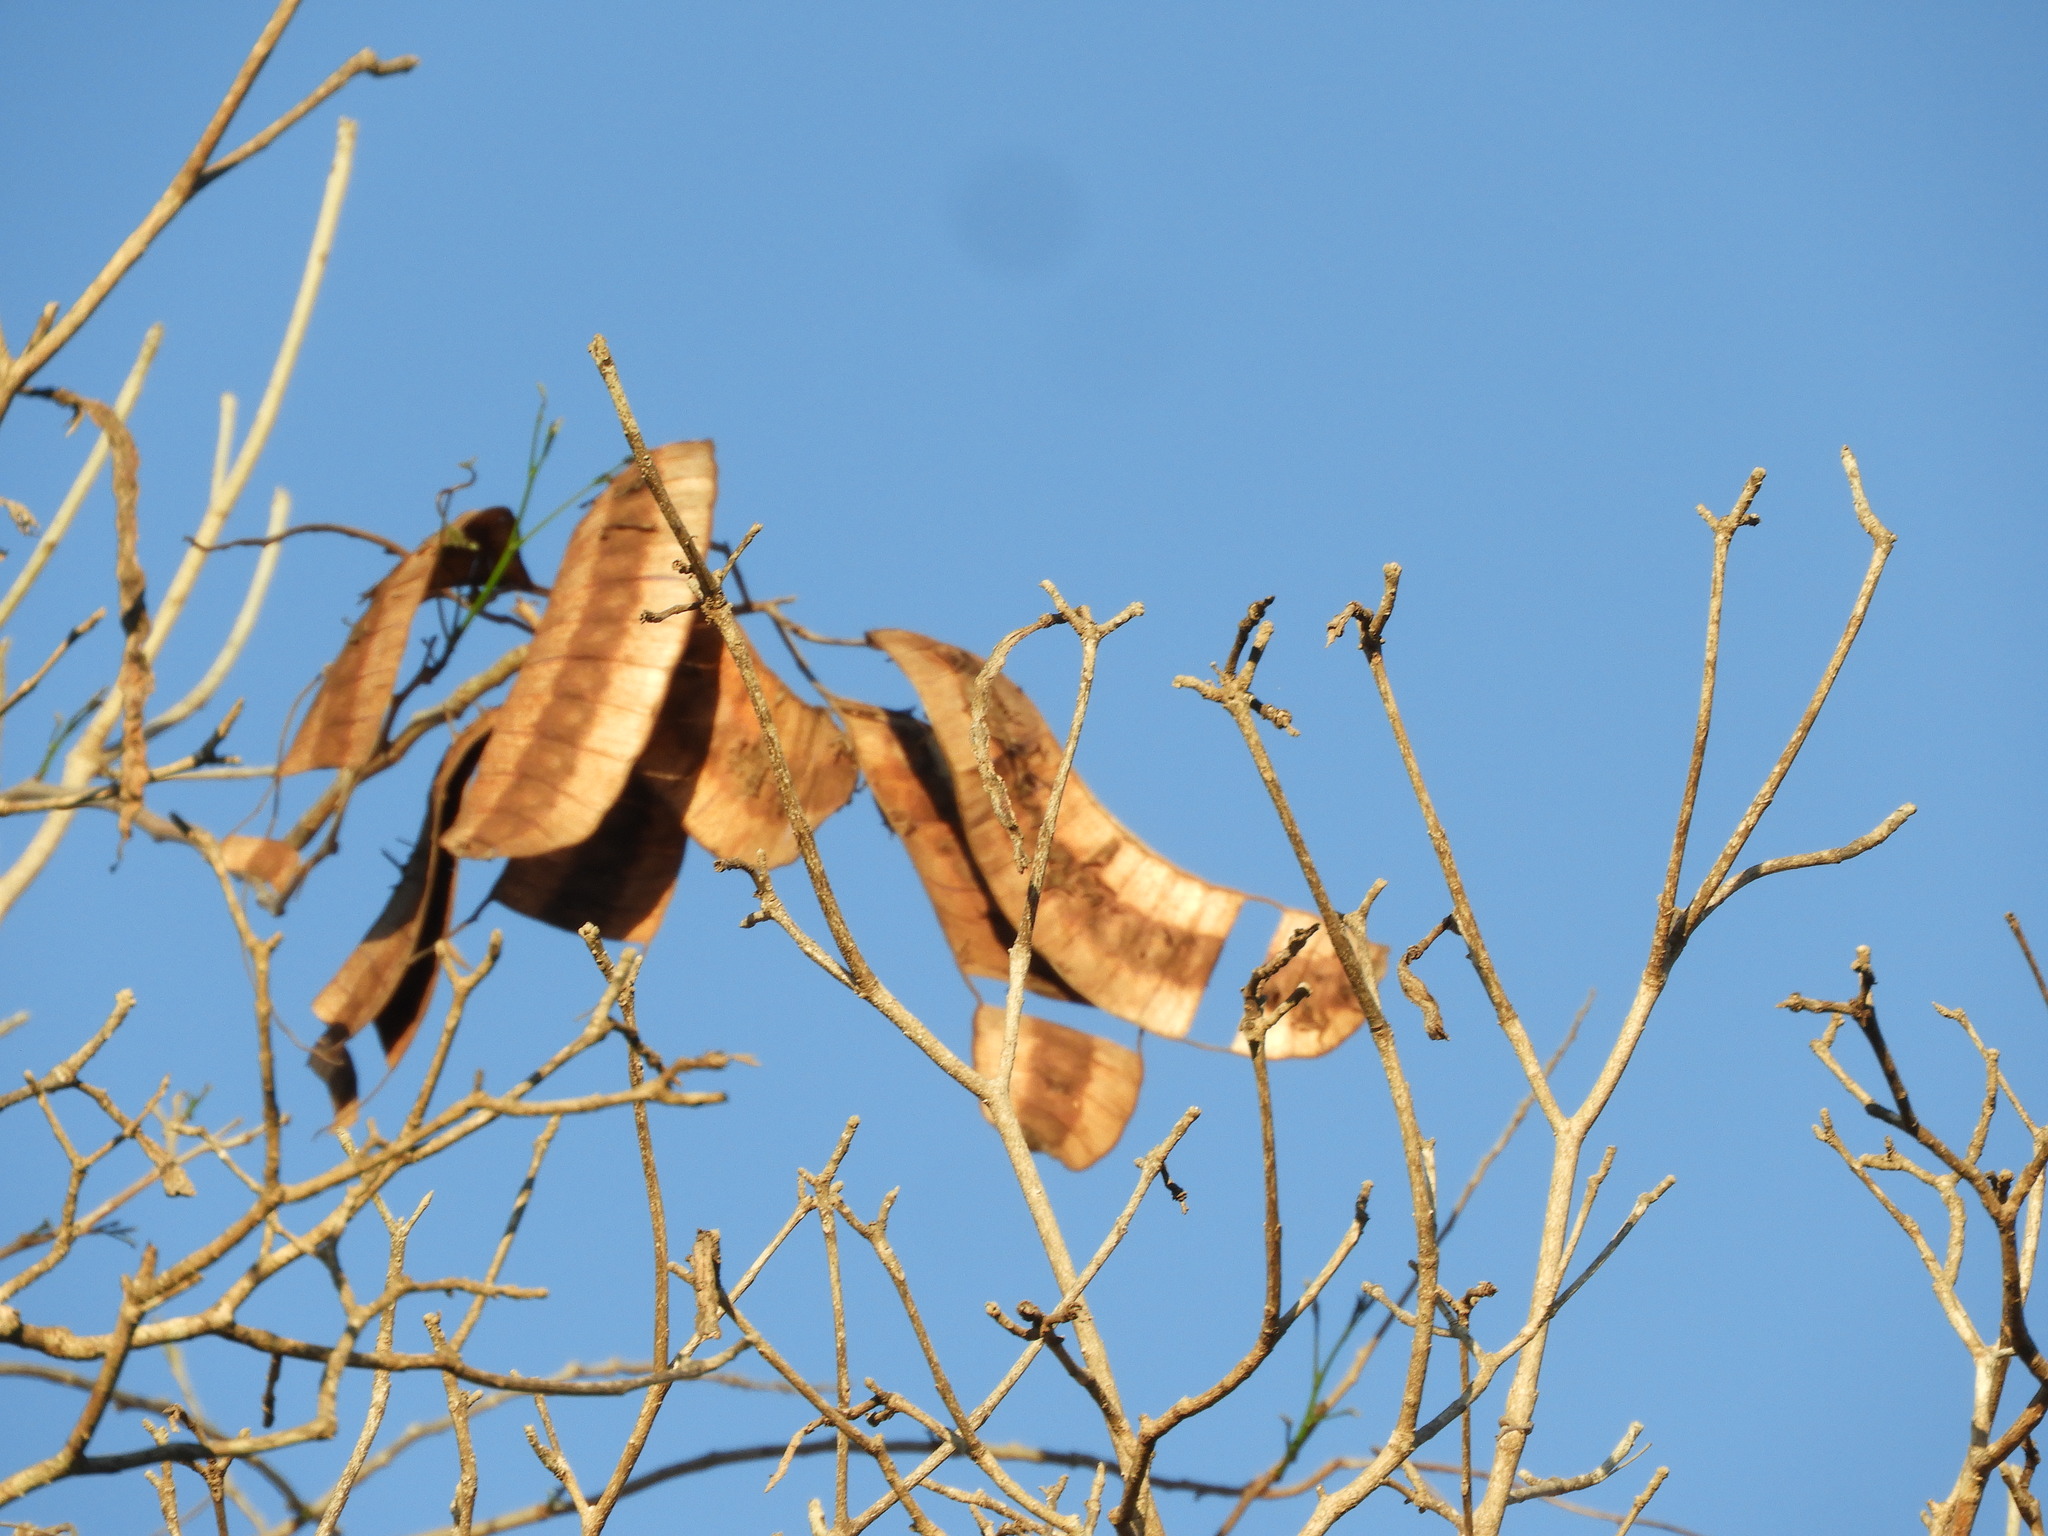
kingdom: Plantae
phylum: Tracheophyta
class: Magnoliopsida
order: Fabales
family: Fabaceae
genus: Entada
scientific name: Entada polystachya
